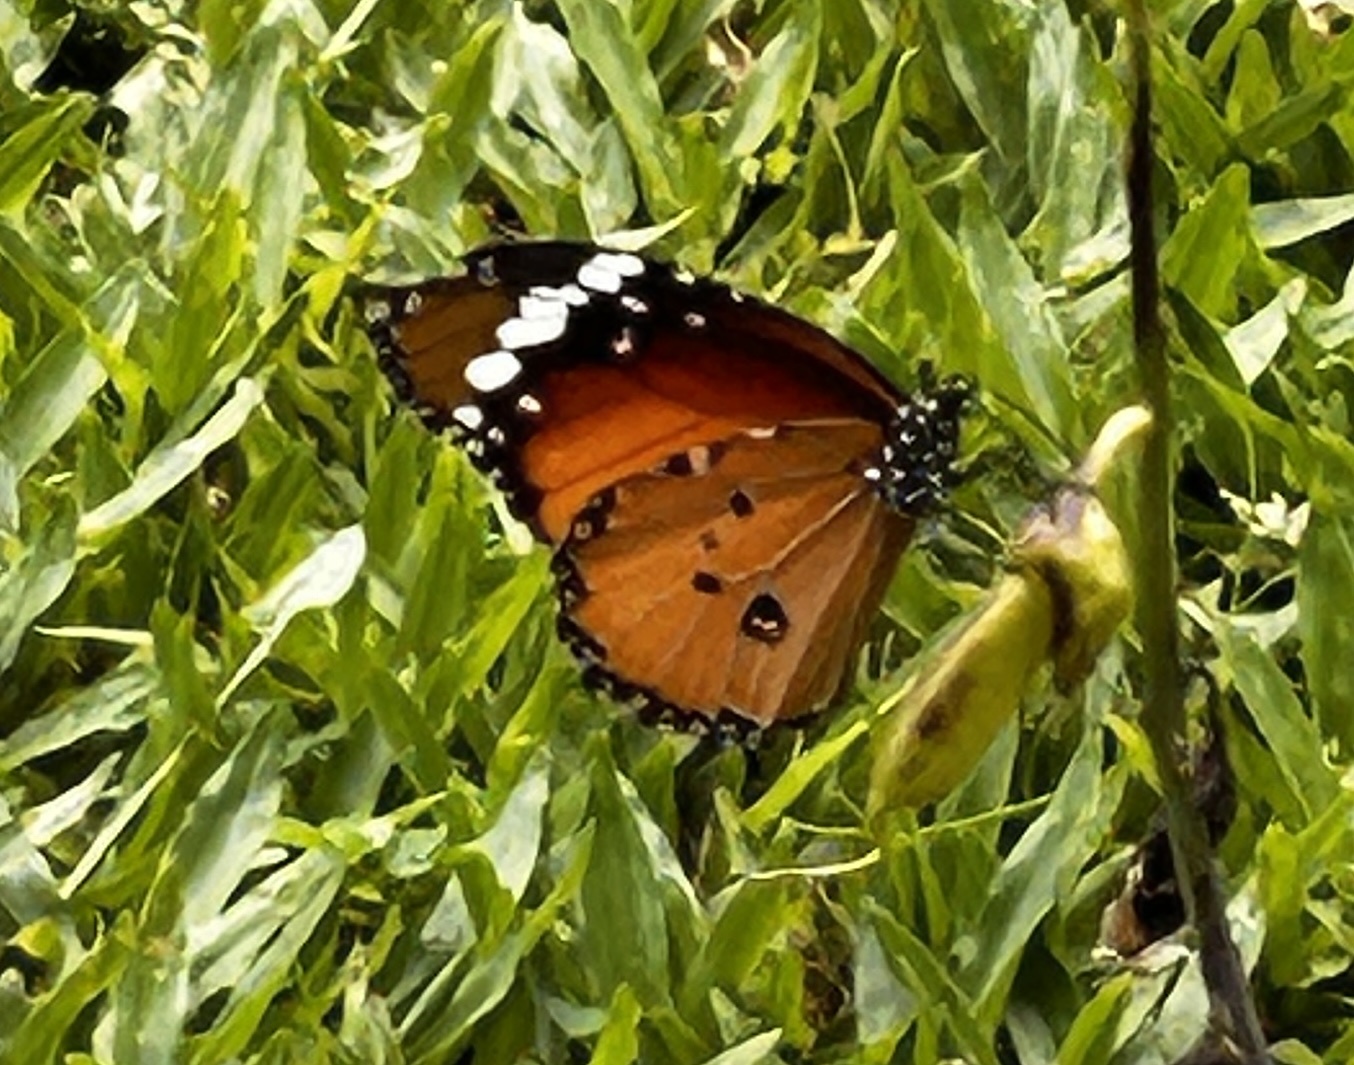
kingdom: Animalia
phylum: Arthropoda
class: Insecta
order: Lepidoptera
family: Nymphalidae
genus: Danaus
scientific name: Danaus chrysippus
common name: Plain tiger
